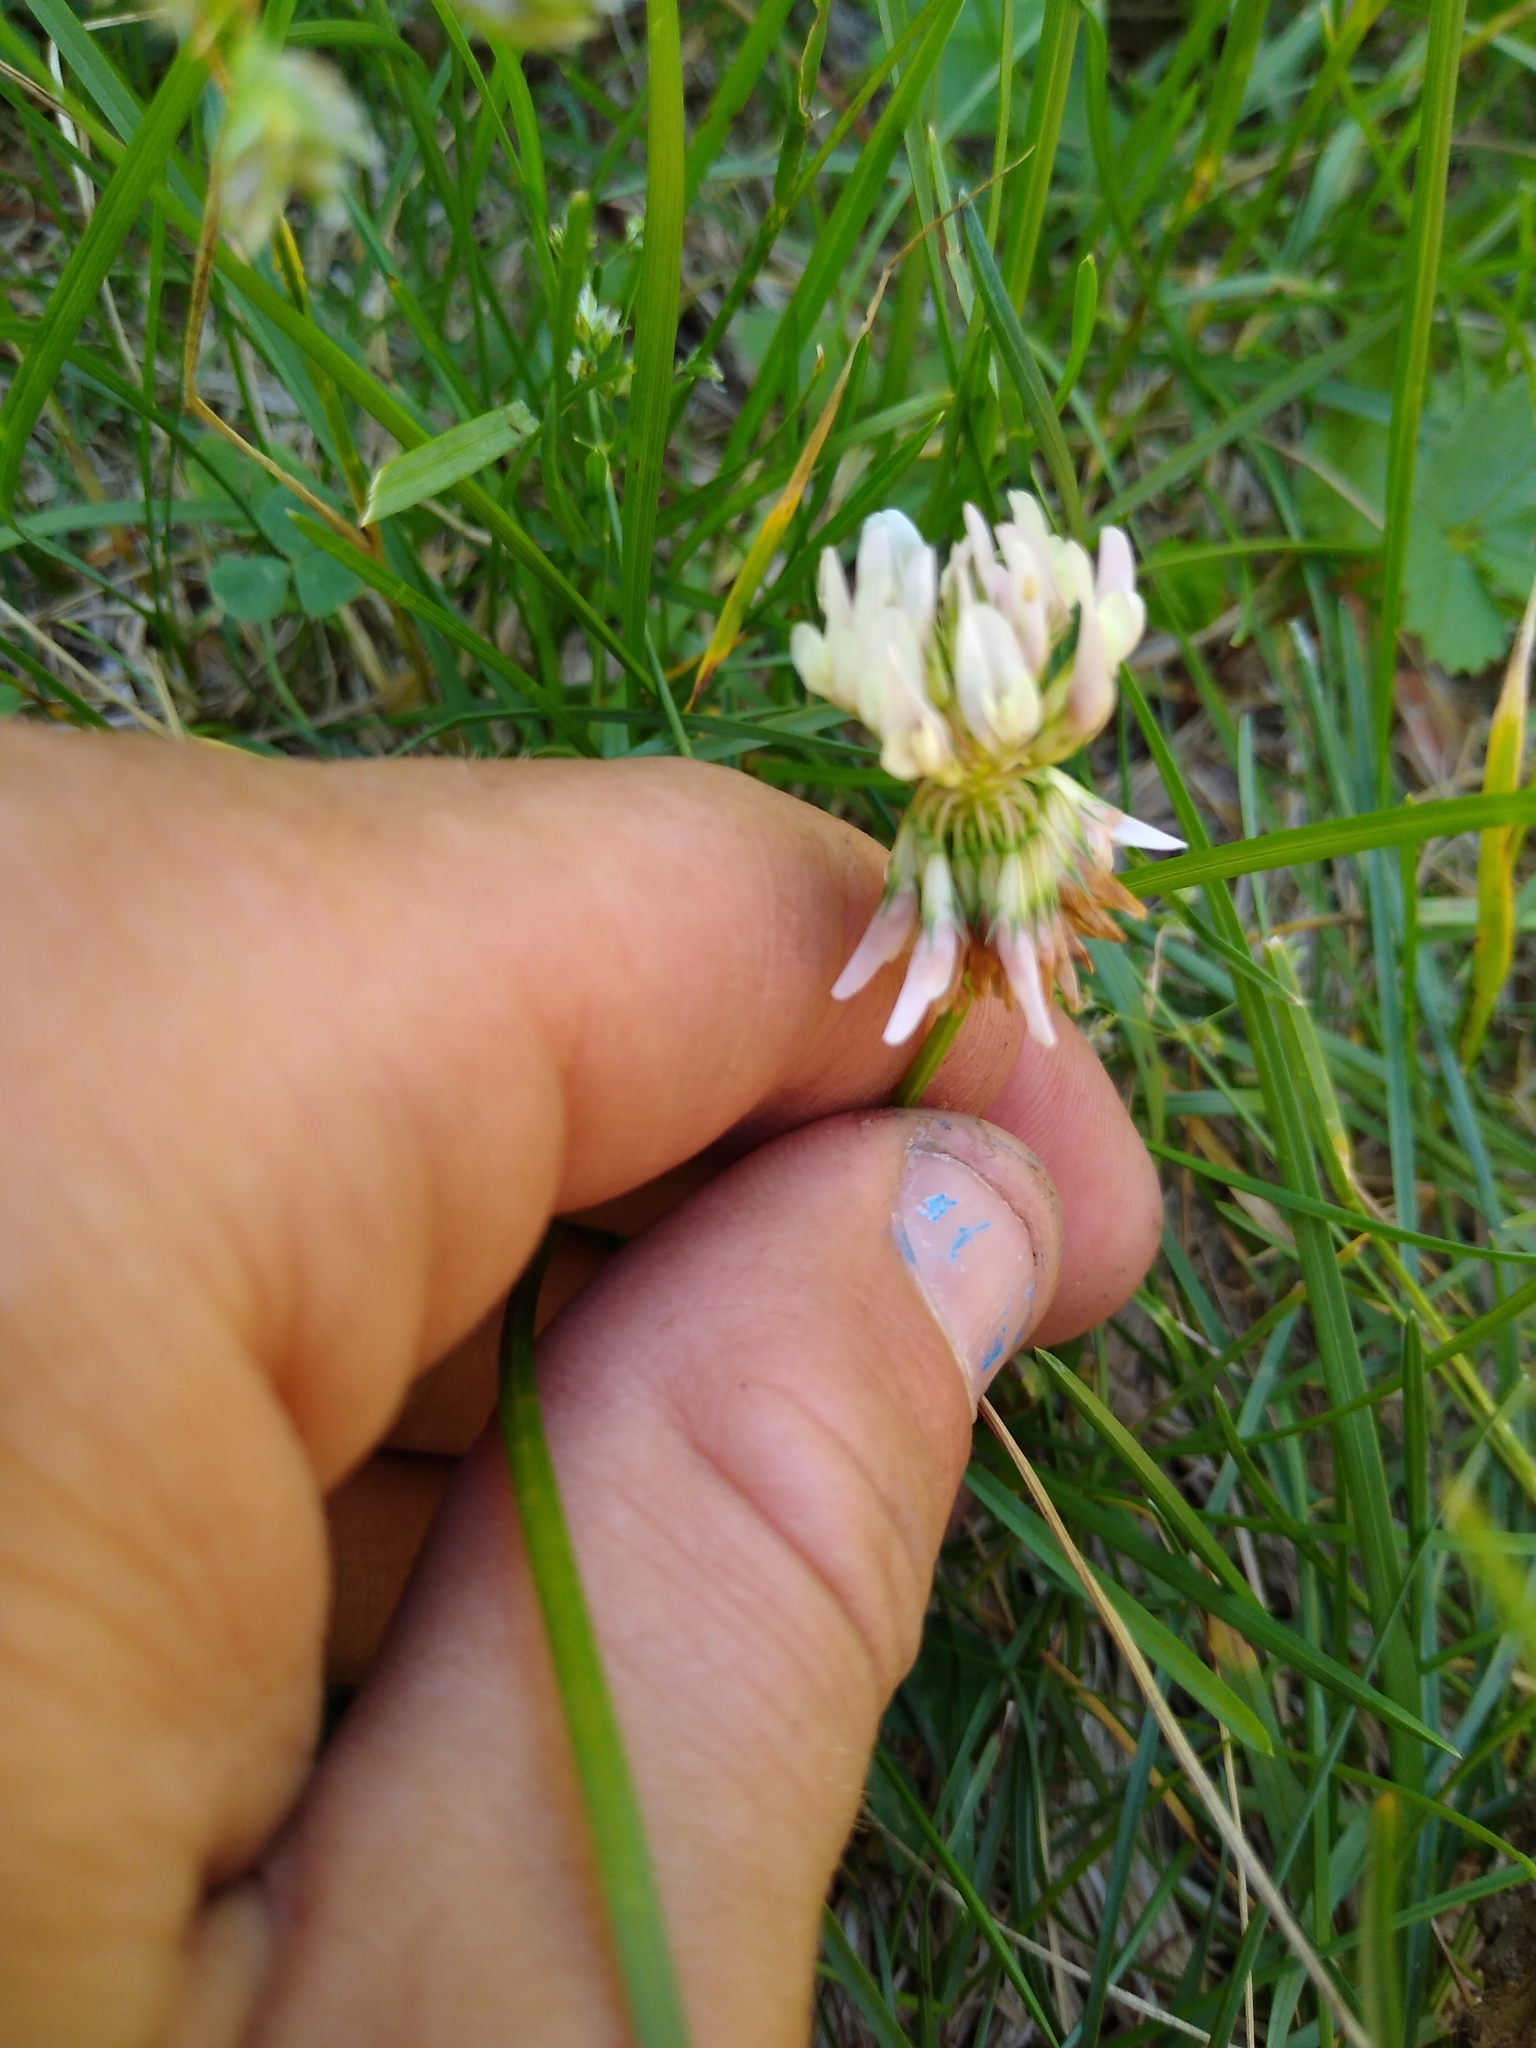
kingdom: Plantae
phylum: Tracheophyta
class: Magnoliopsida
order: Fabales
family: Fabaceae
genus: Trifolium
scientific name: Trifolium repens
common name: White clover
